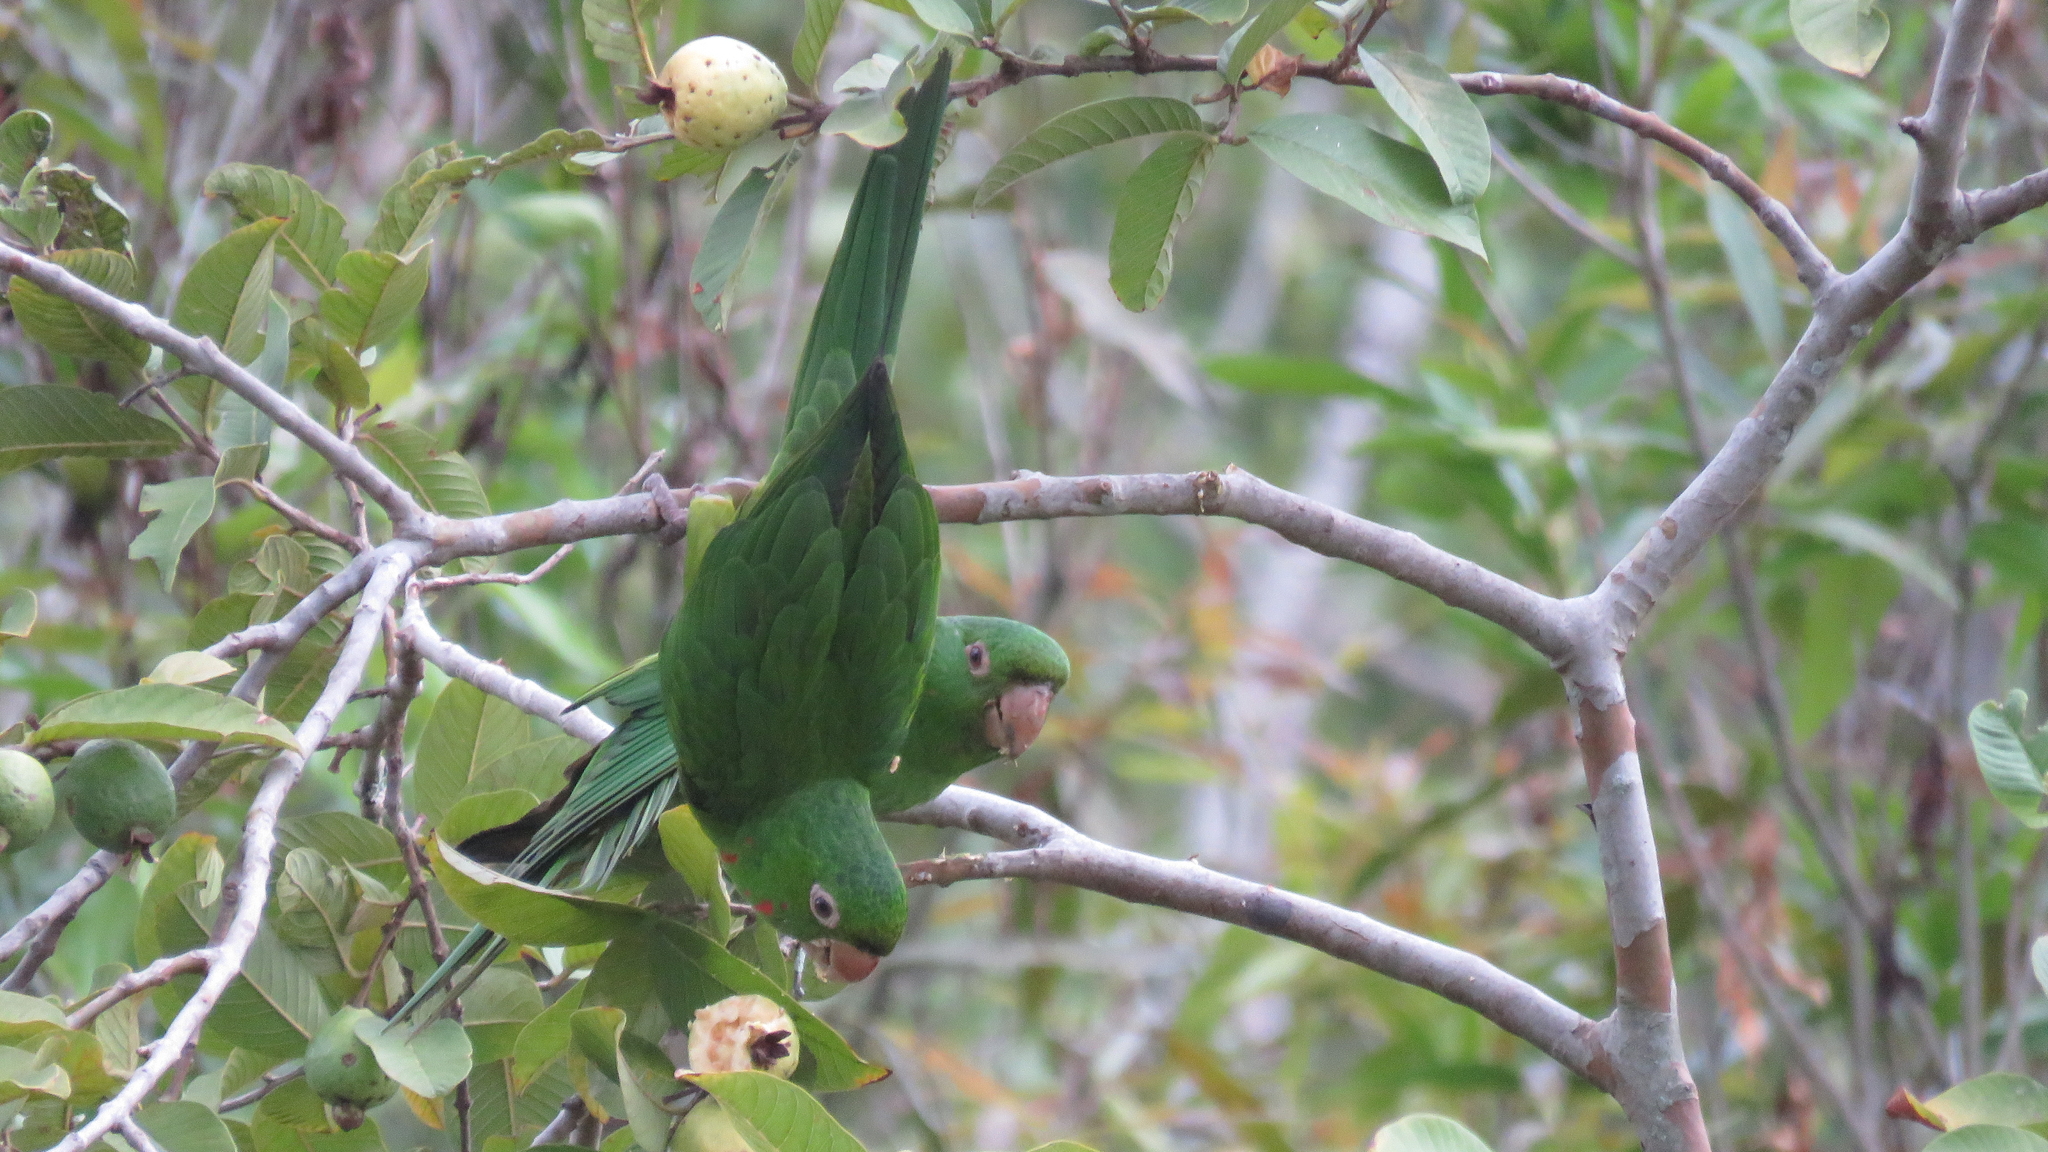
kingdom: Animalia
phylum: Chordata
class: Aves
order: Psittaciformes
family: Psittacidae
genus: Aratinga
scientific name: Aratinga leucophthalma
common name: White-eyed parakeet
